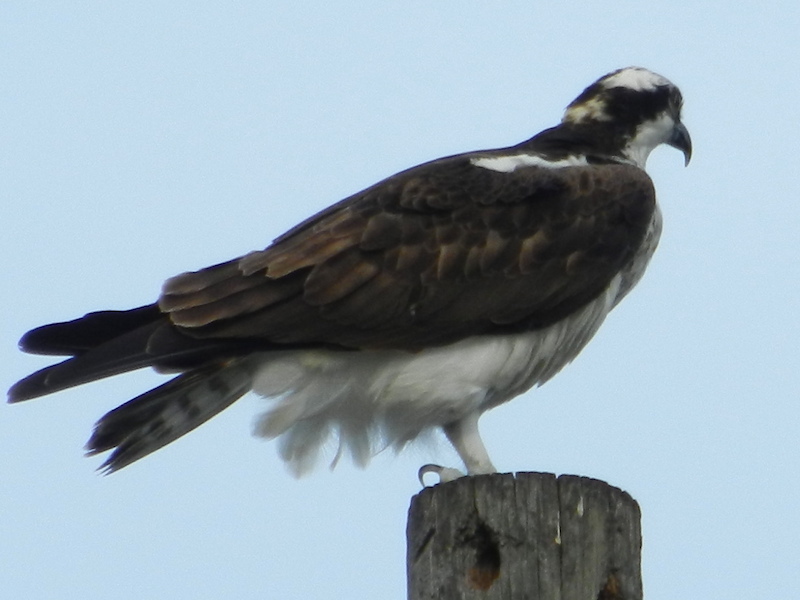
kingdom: Animalia
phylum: Chordata
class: Aves
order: Accipitriformes
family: Pandionidae
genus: Pandion
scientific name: Pandion haliaetus
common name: Osprey
